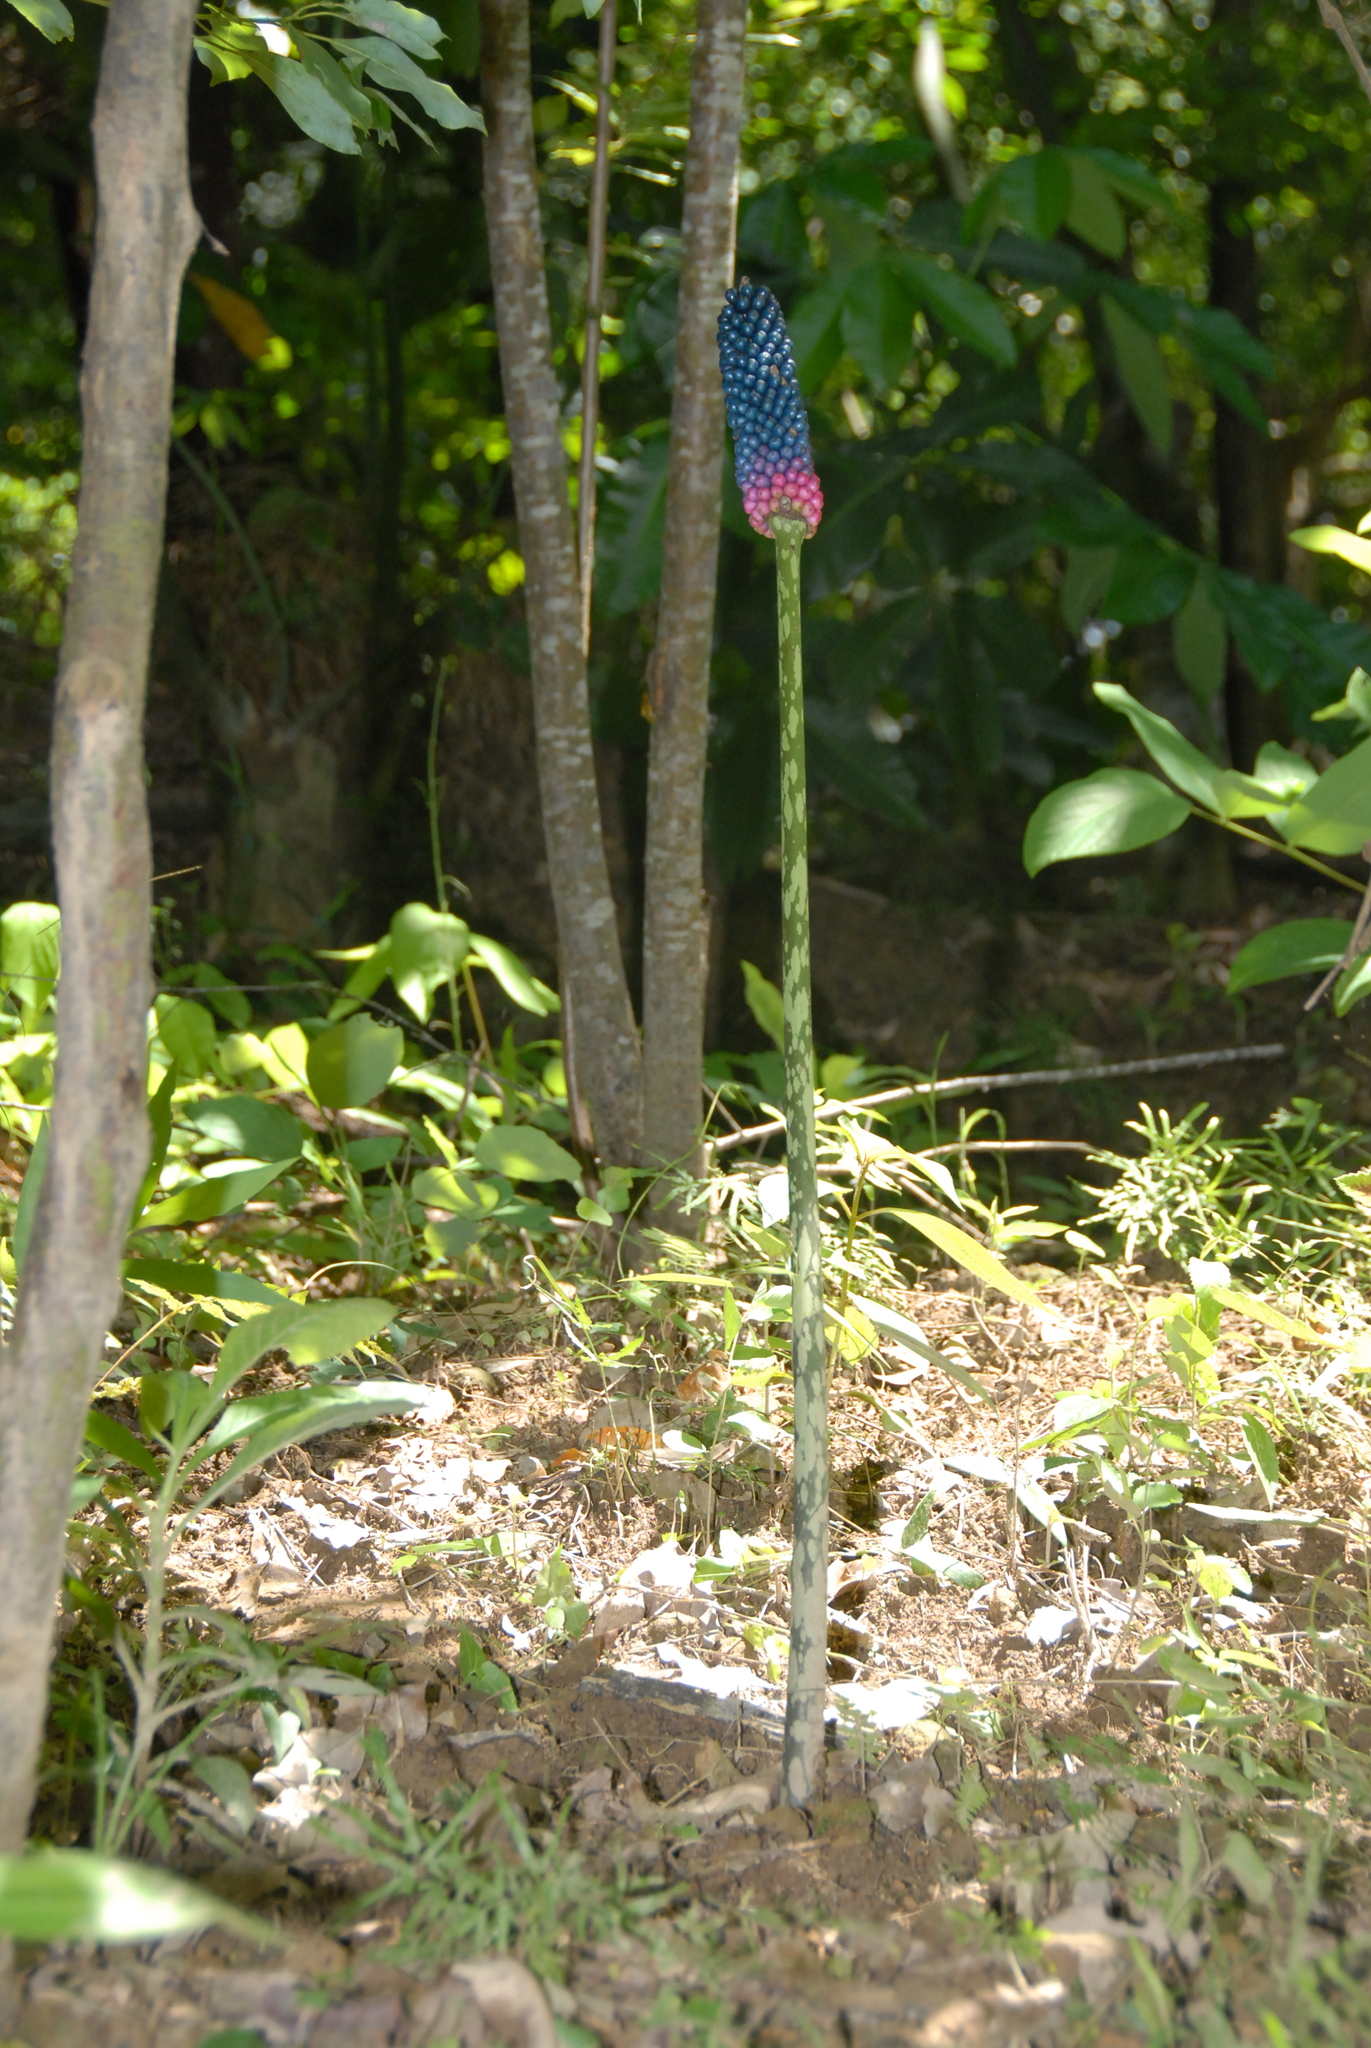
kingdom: Plantae
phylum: Tracheophyta
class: Liliopsida
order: Alismatales
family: Araceae
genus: Amorphophallus
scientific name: Amorphophallus kiusianus
